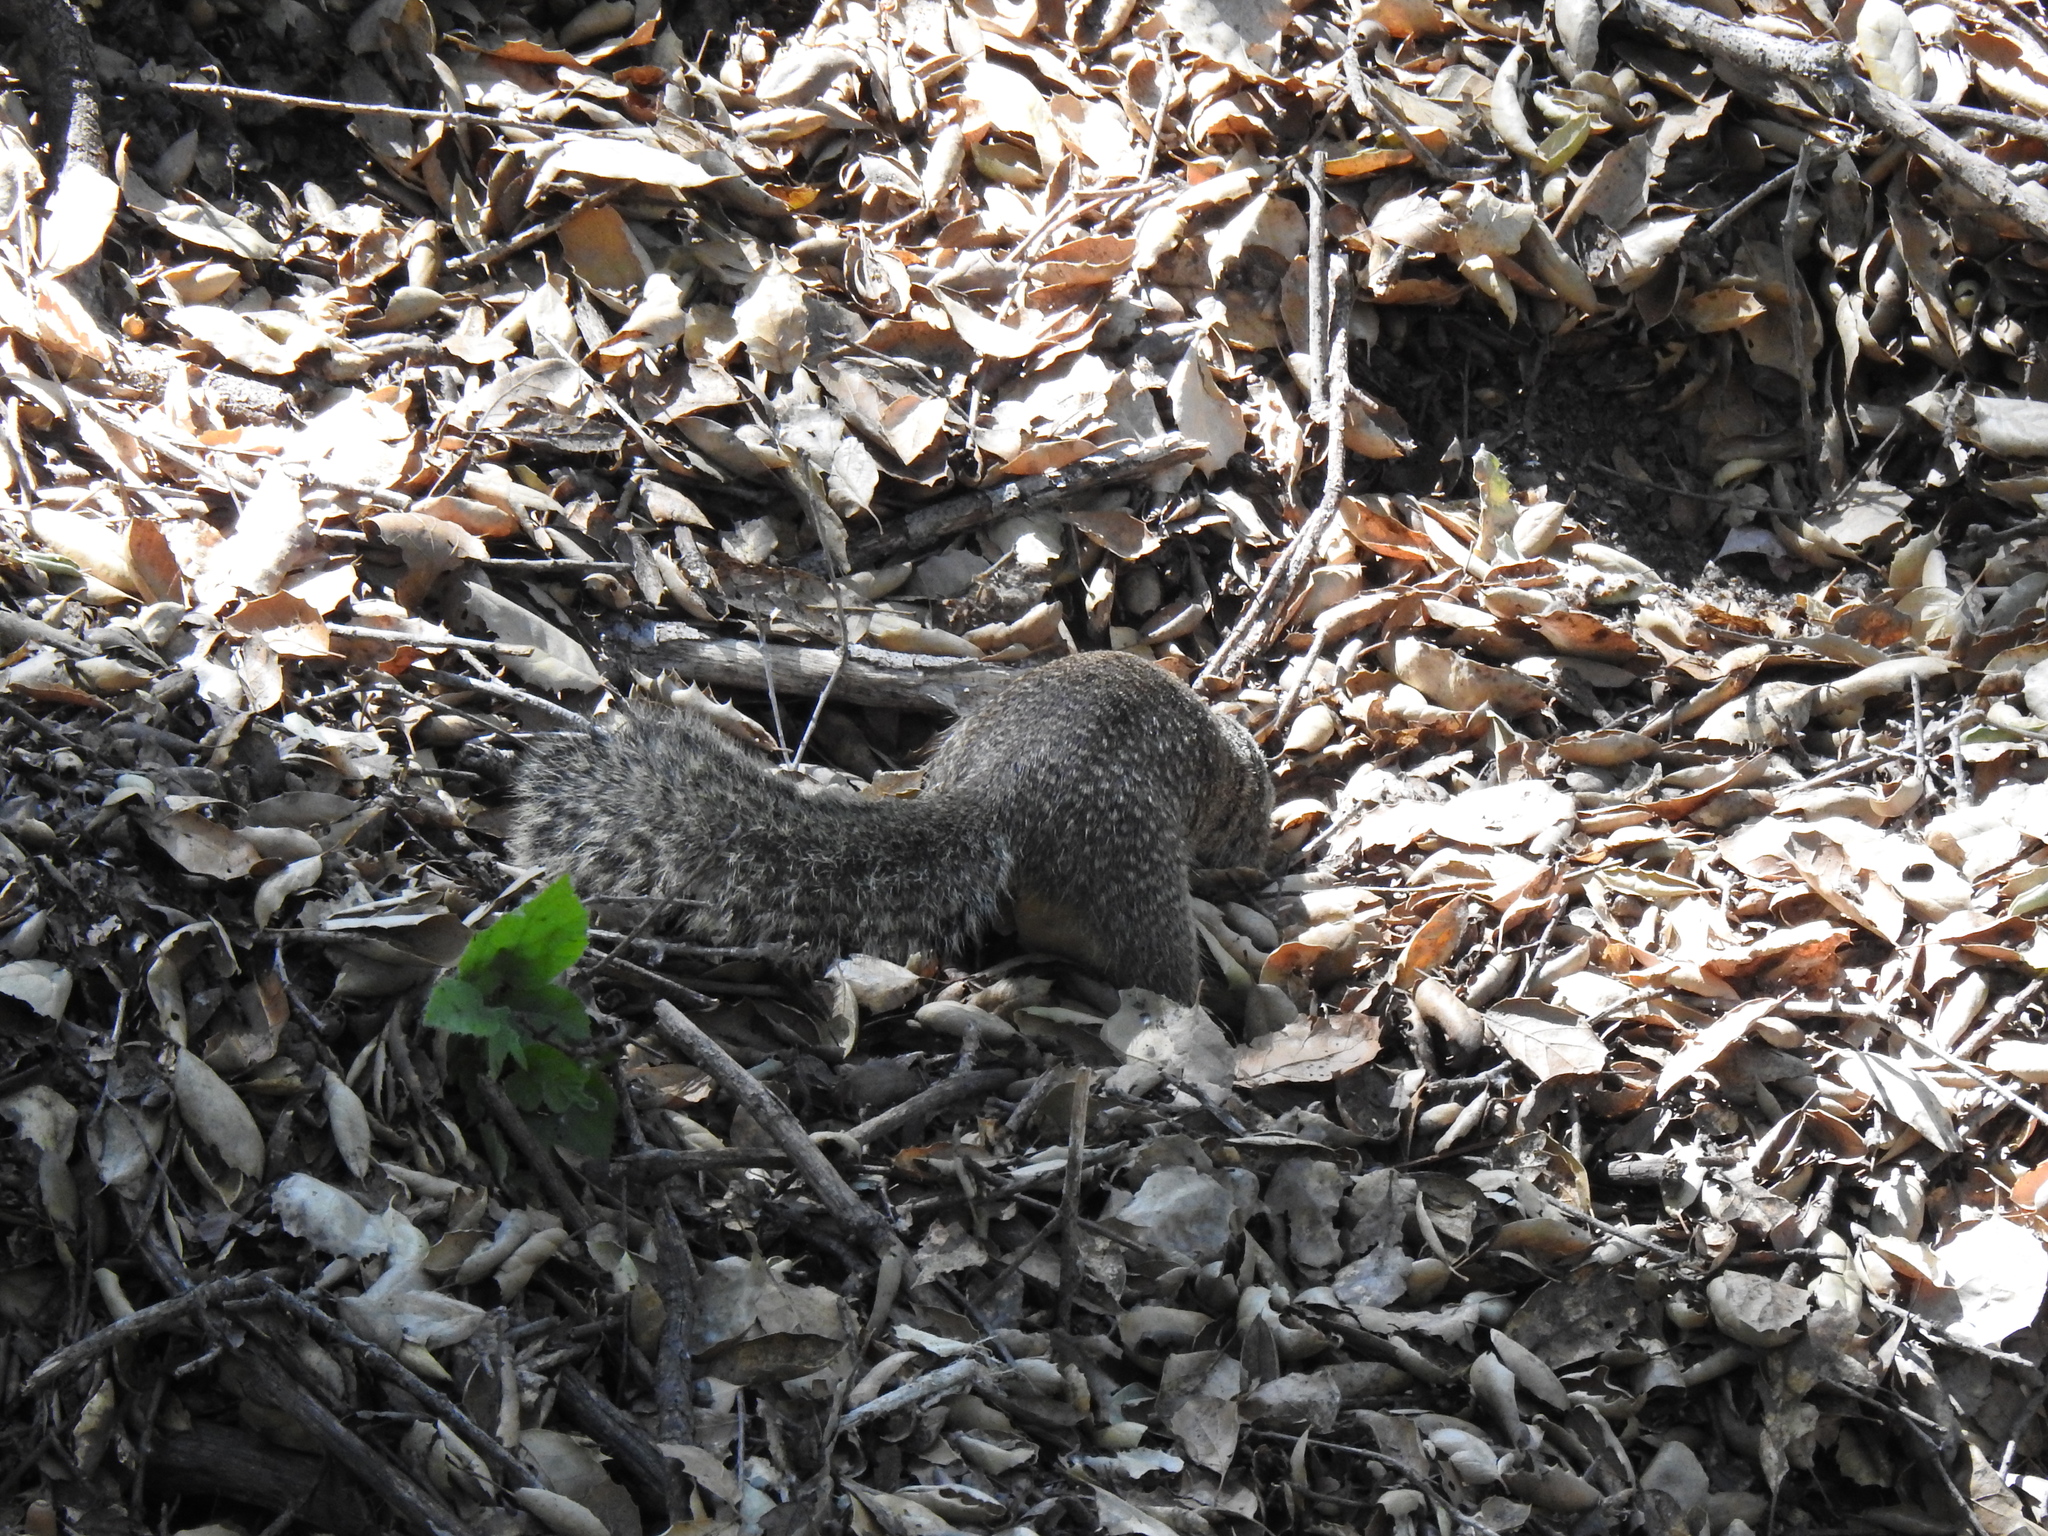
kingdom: Animalia
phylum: Chordata
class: Mammalia
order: Rodentia
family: Sciuridae
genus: Otospermophilus
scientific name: Otospermophilus beecheyi
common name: California ground squirrel
